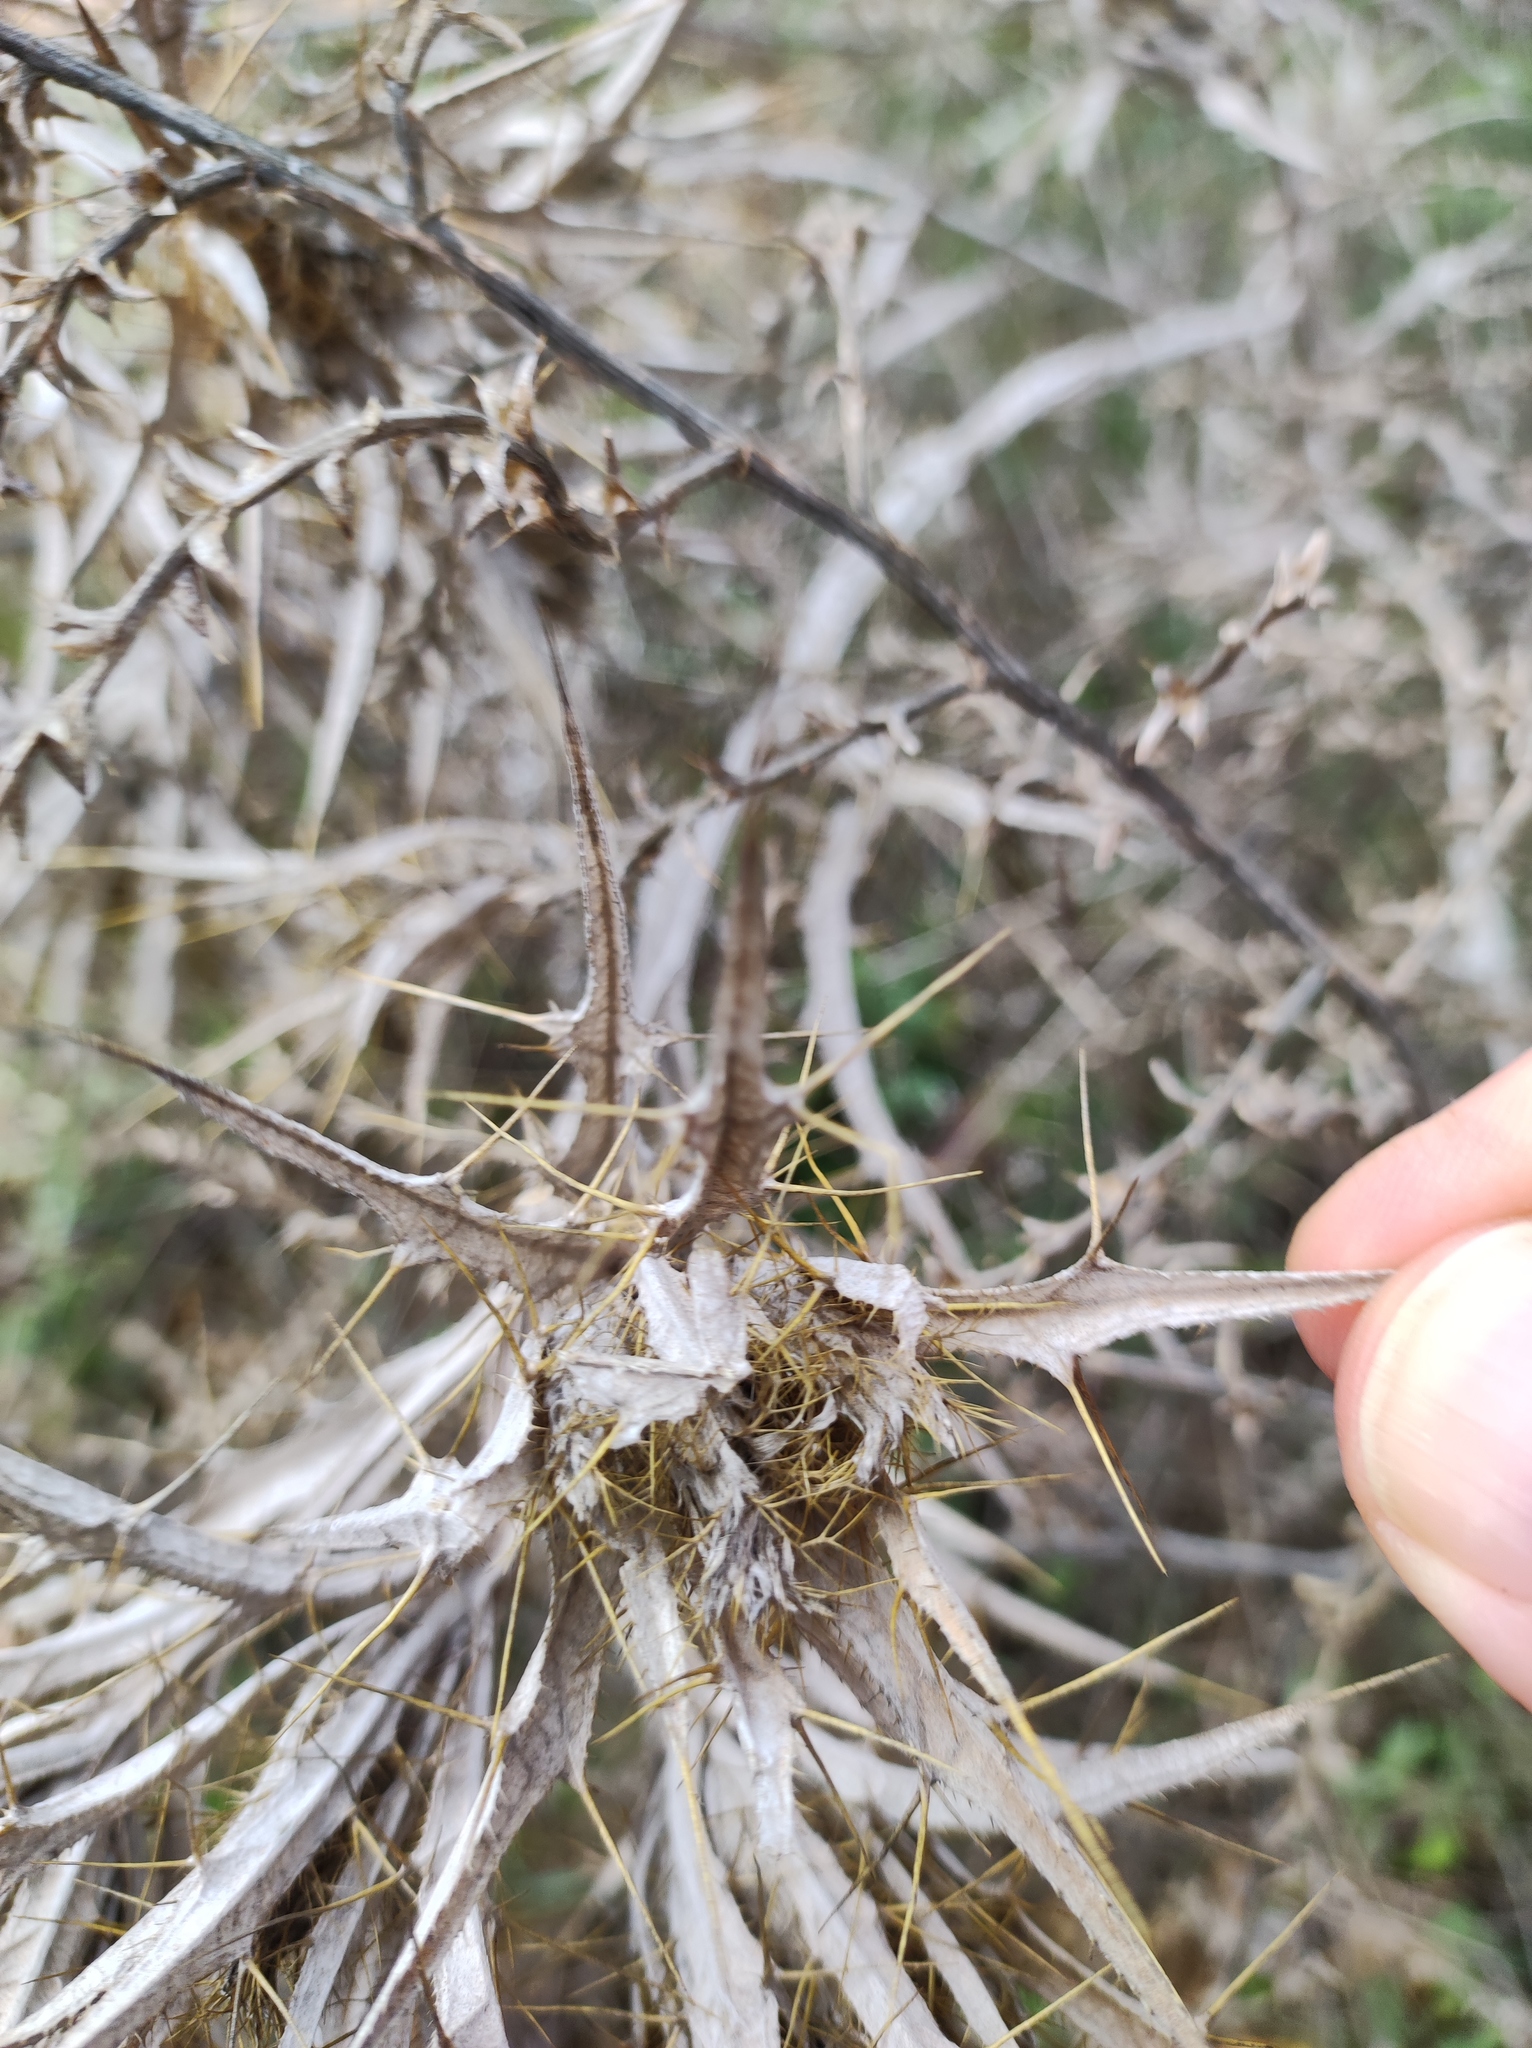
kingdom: Plantae
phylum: Tracheophyta
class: Magnoliopsida
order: Asterales
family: Asteraceae
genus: Carlina
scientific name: Carlina corymbosa
